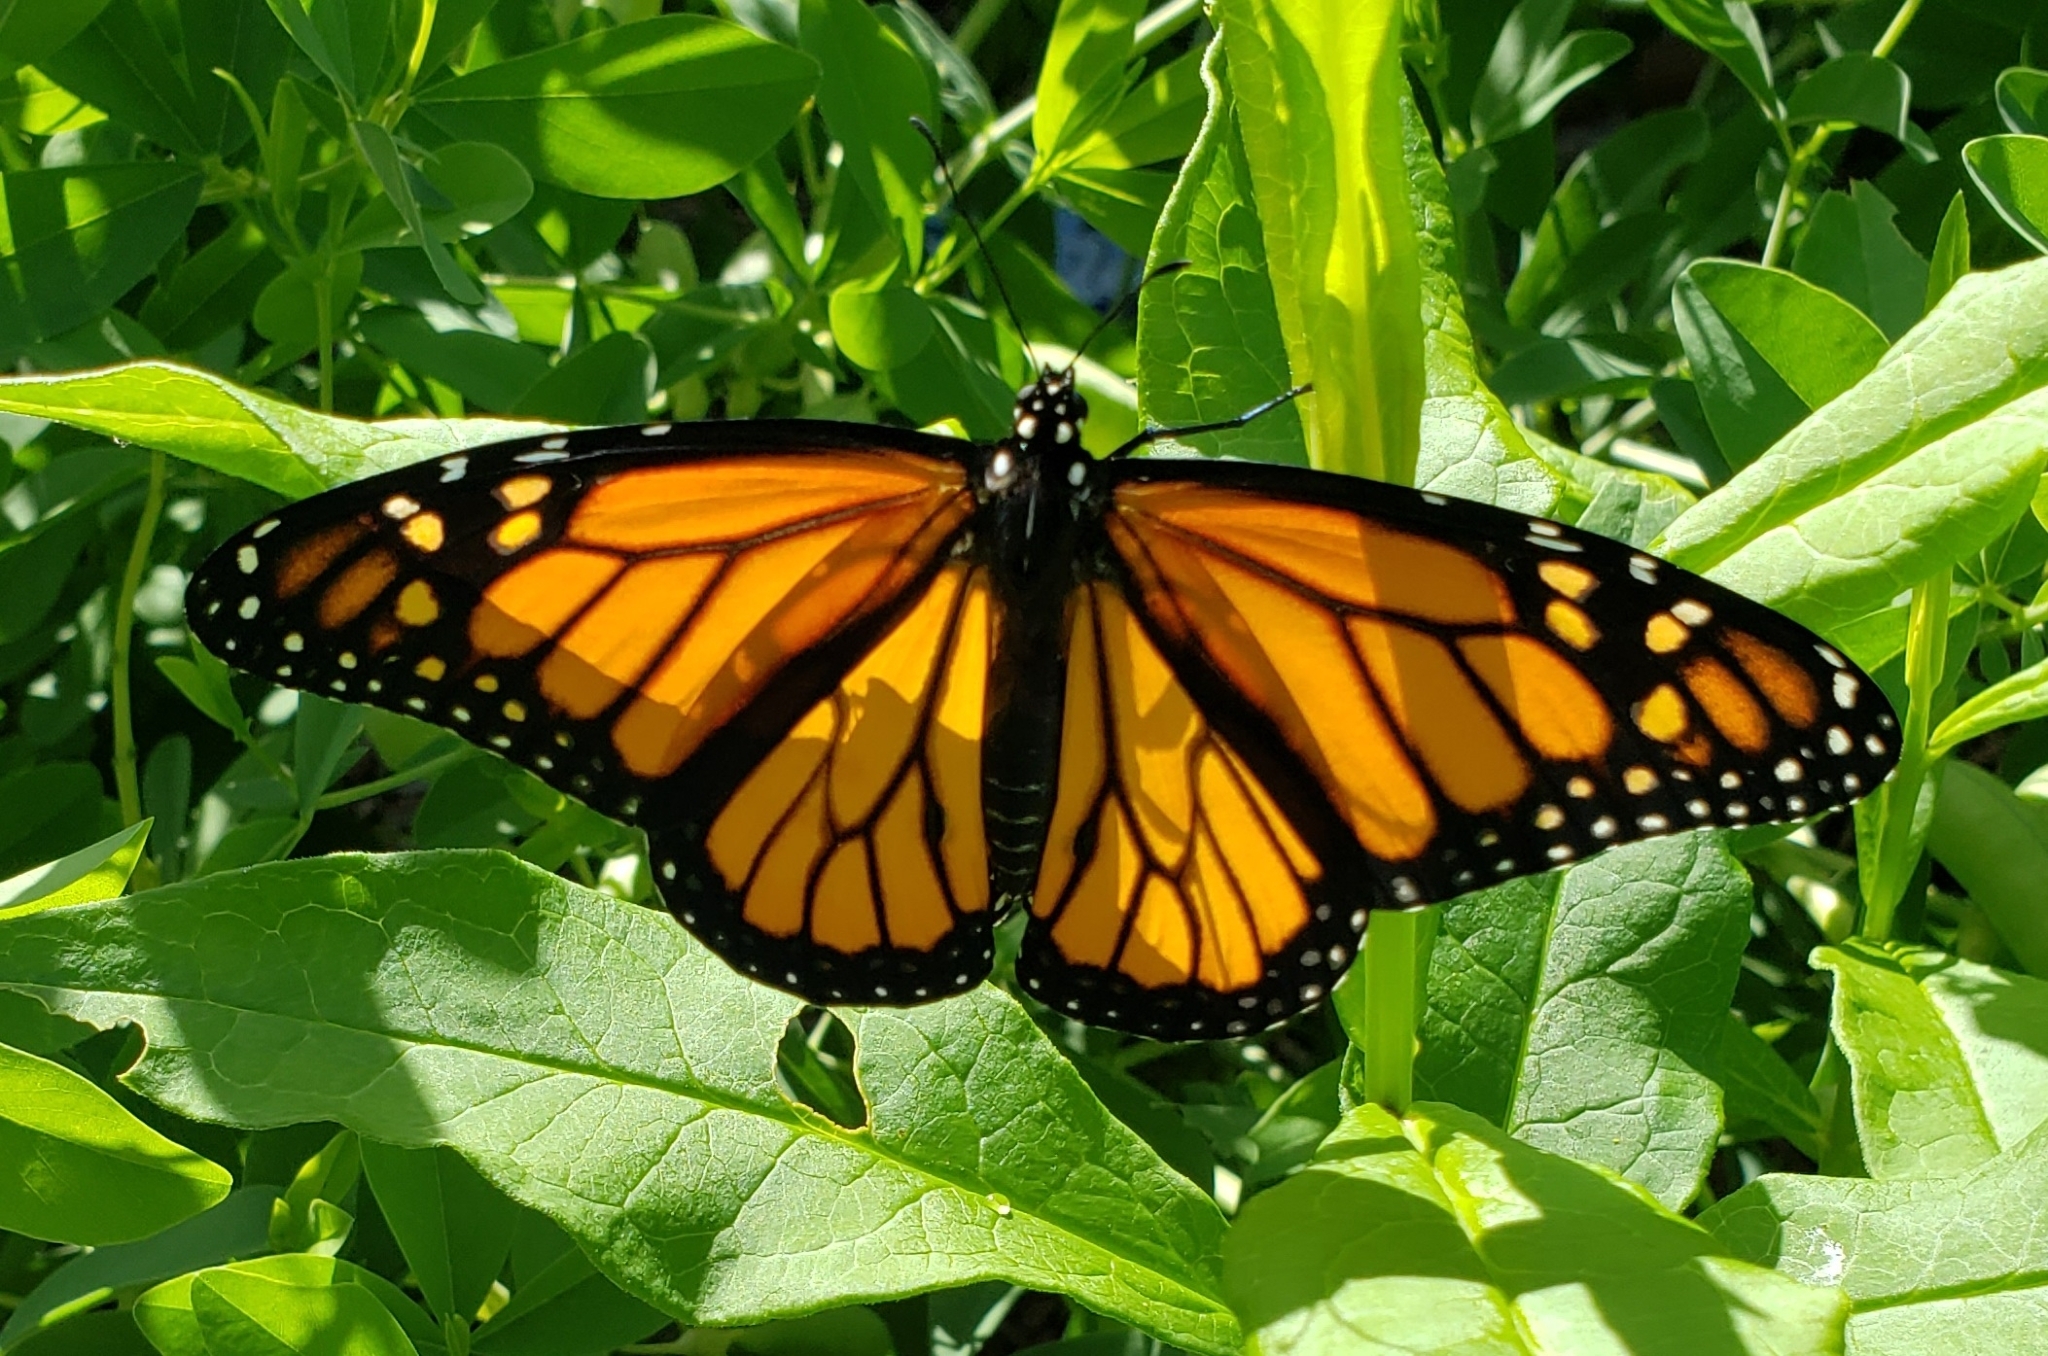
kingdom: Animalia
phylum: Arthropoda
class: Insecta
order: Lepidoptera
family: Nymphalidae
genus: Danaus
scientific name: Danaus plexippus
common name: Monarch
